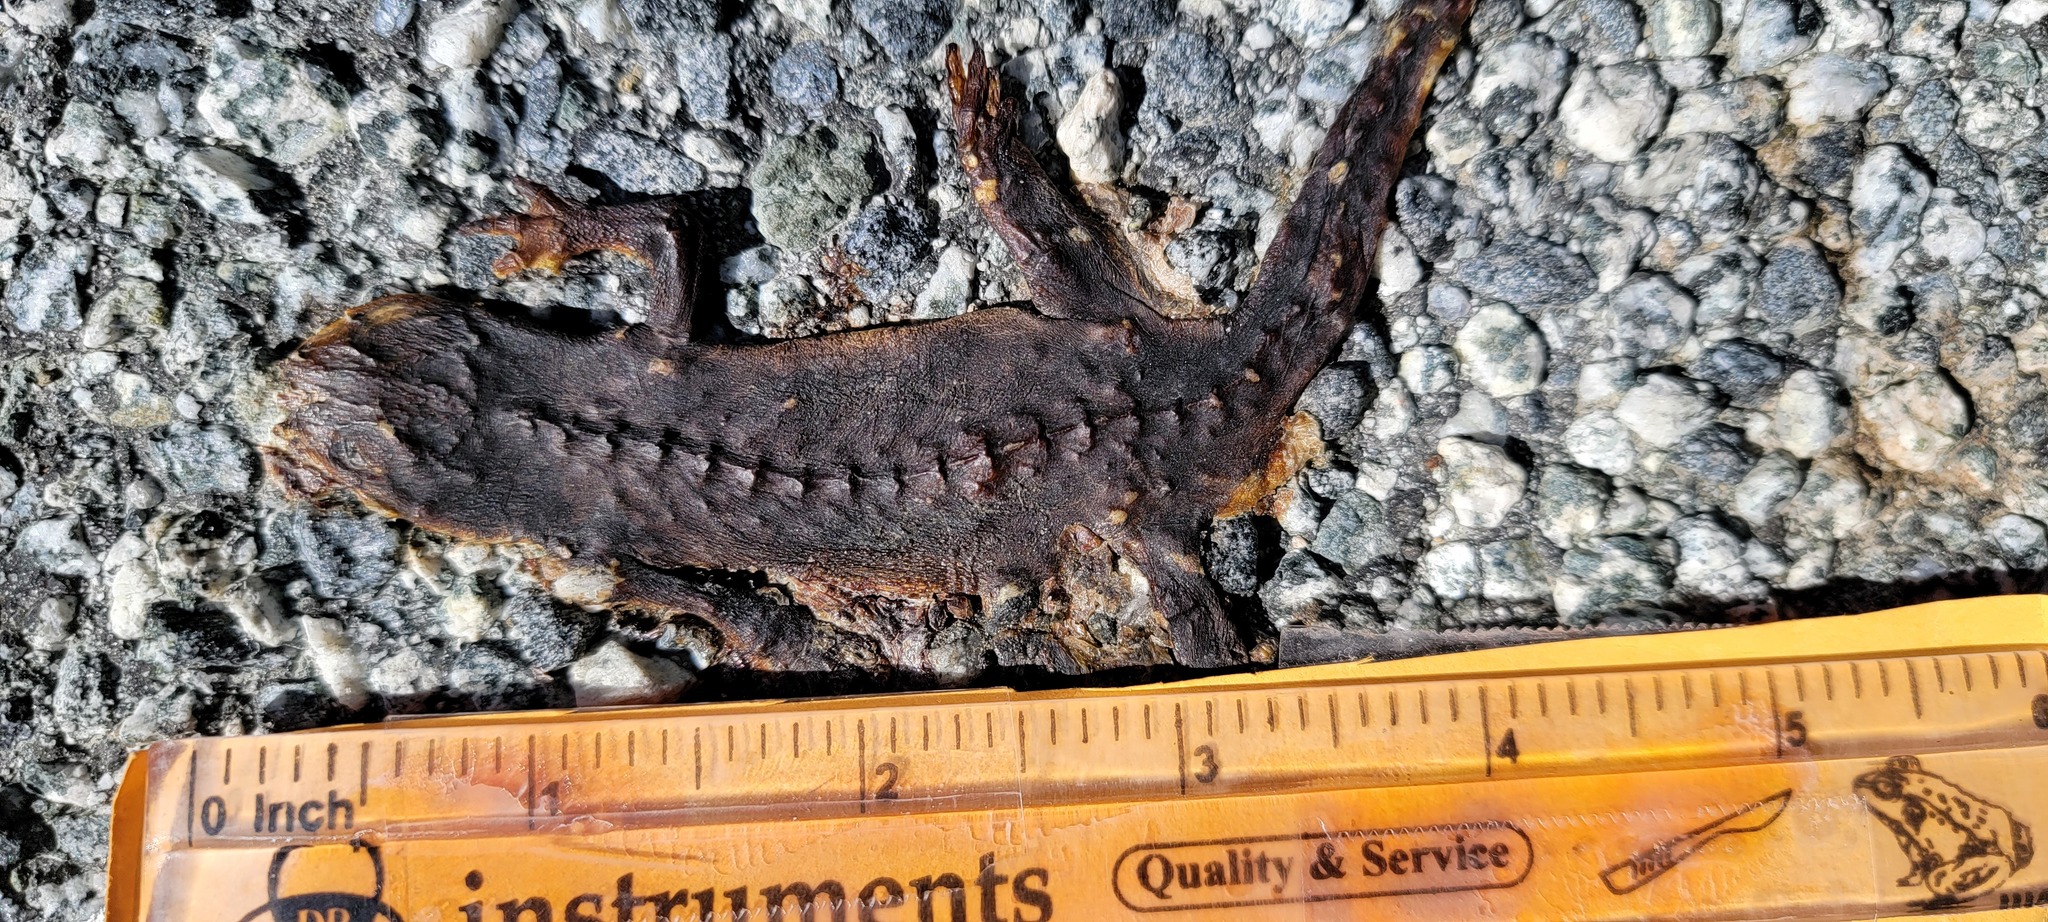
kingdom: Animalia
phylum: Chordata
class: Amphibia
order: Caudata
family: Salamandridae
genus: Taricha
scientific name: Taricha
